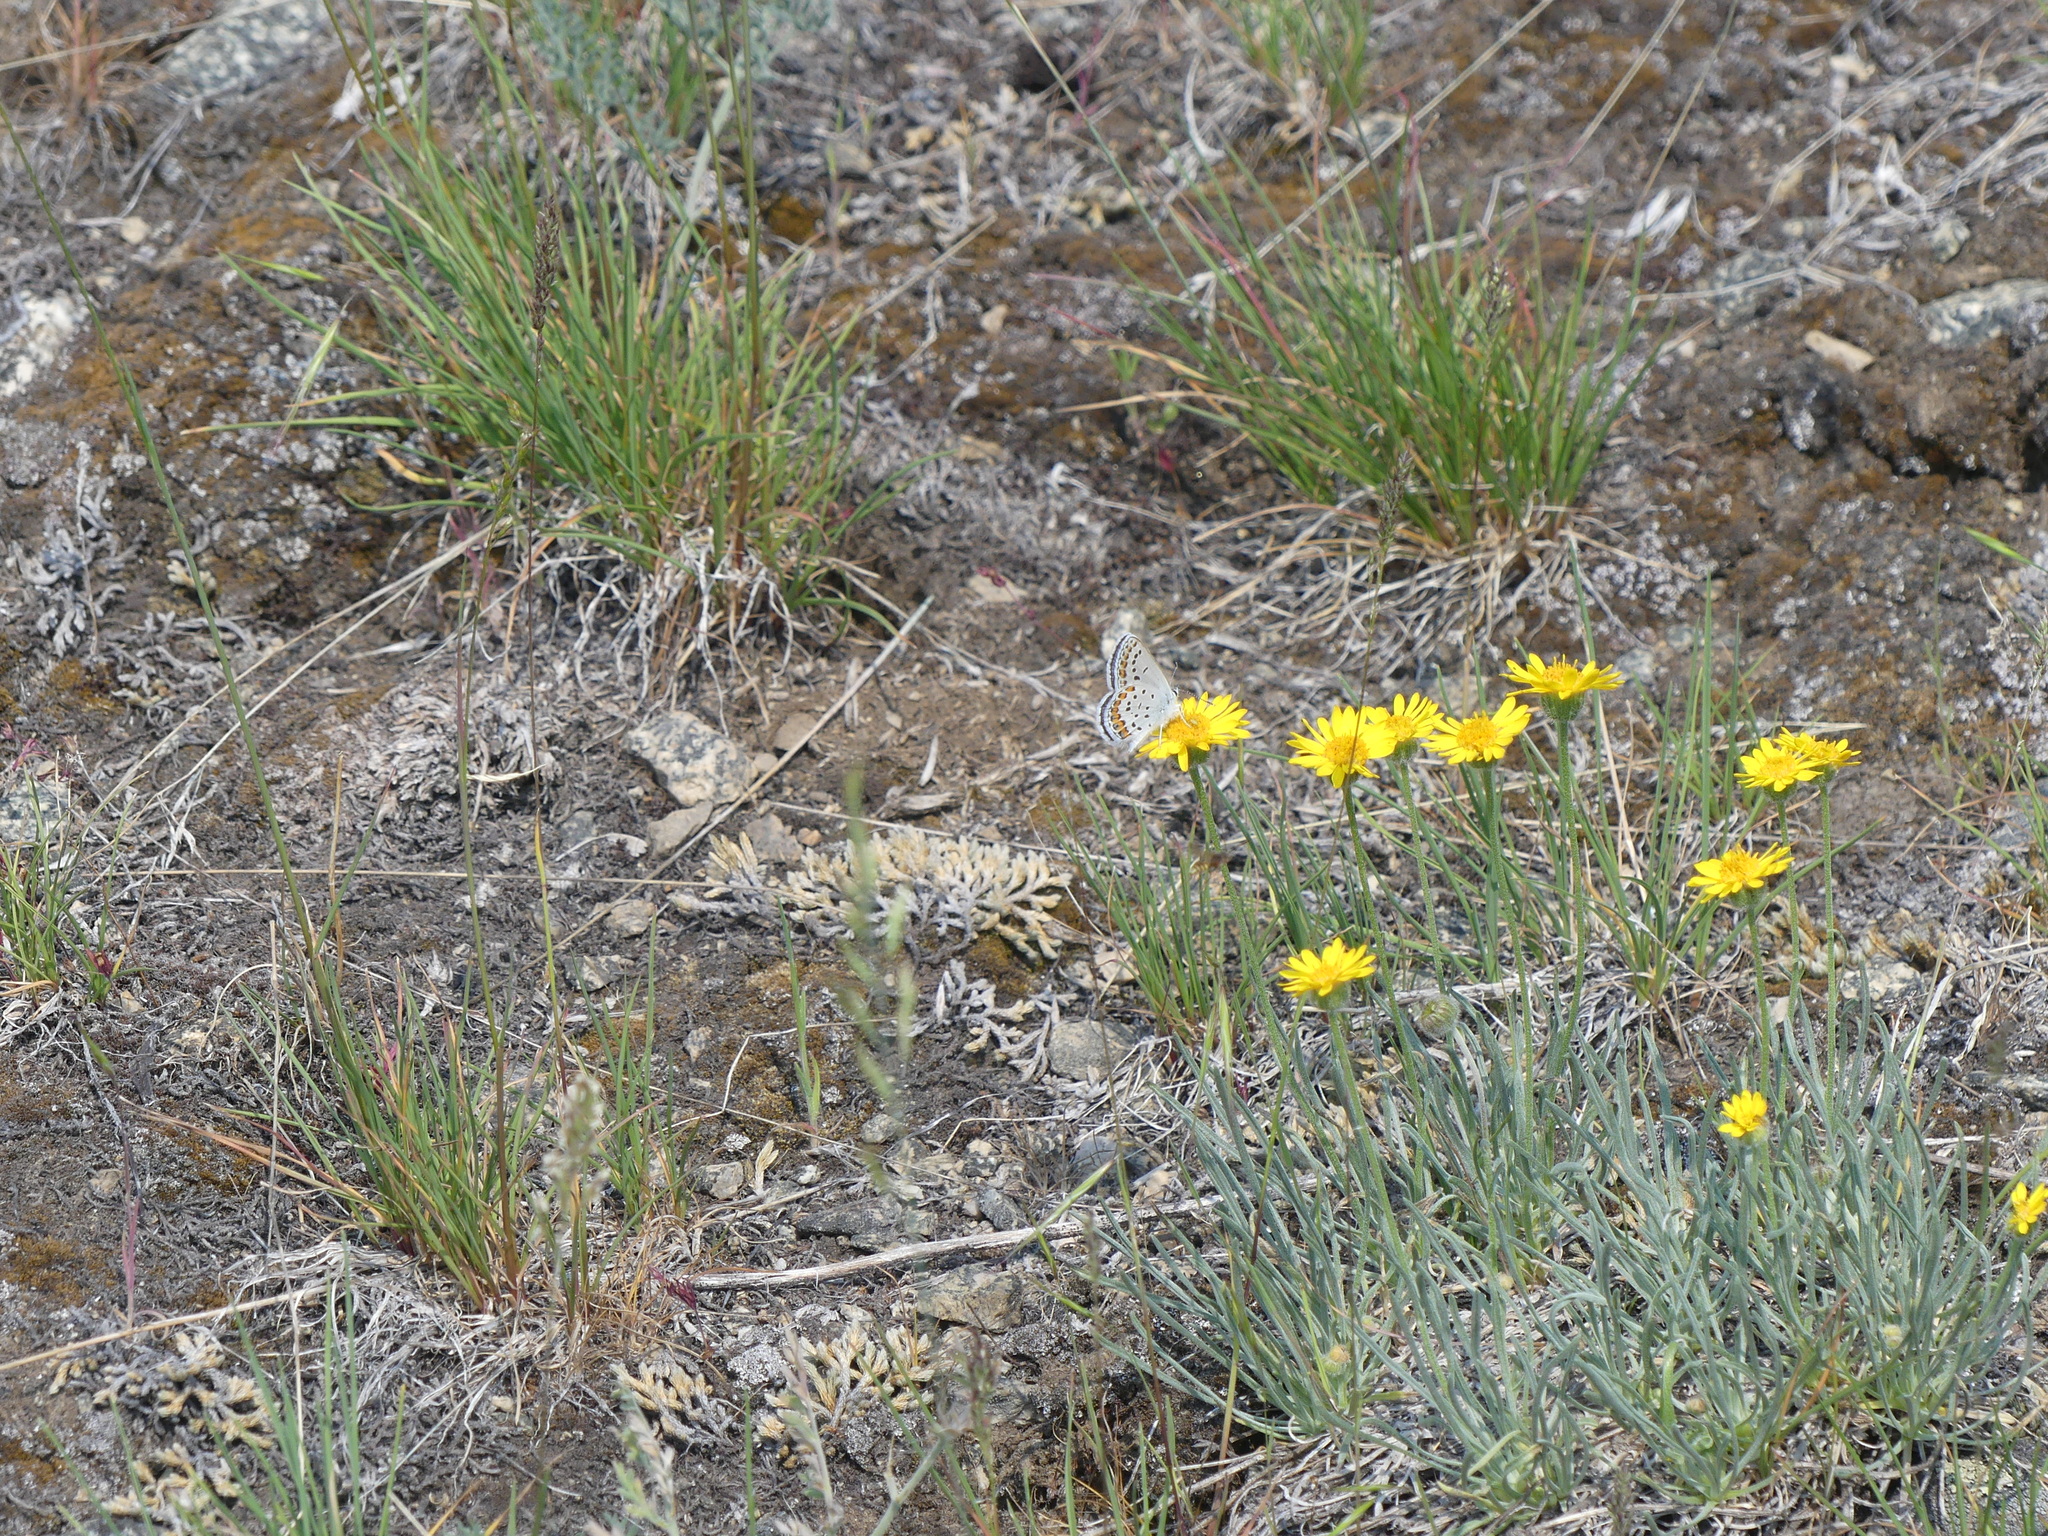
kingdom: Animalia
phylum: Arthropoda
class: Insecta
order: Lepidoptera
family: Lycaenidae
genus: Lycaeides
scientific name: Lycaeides melissa
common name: Melissa blue
